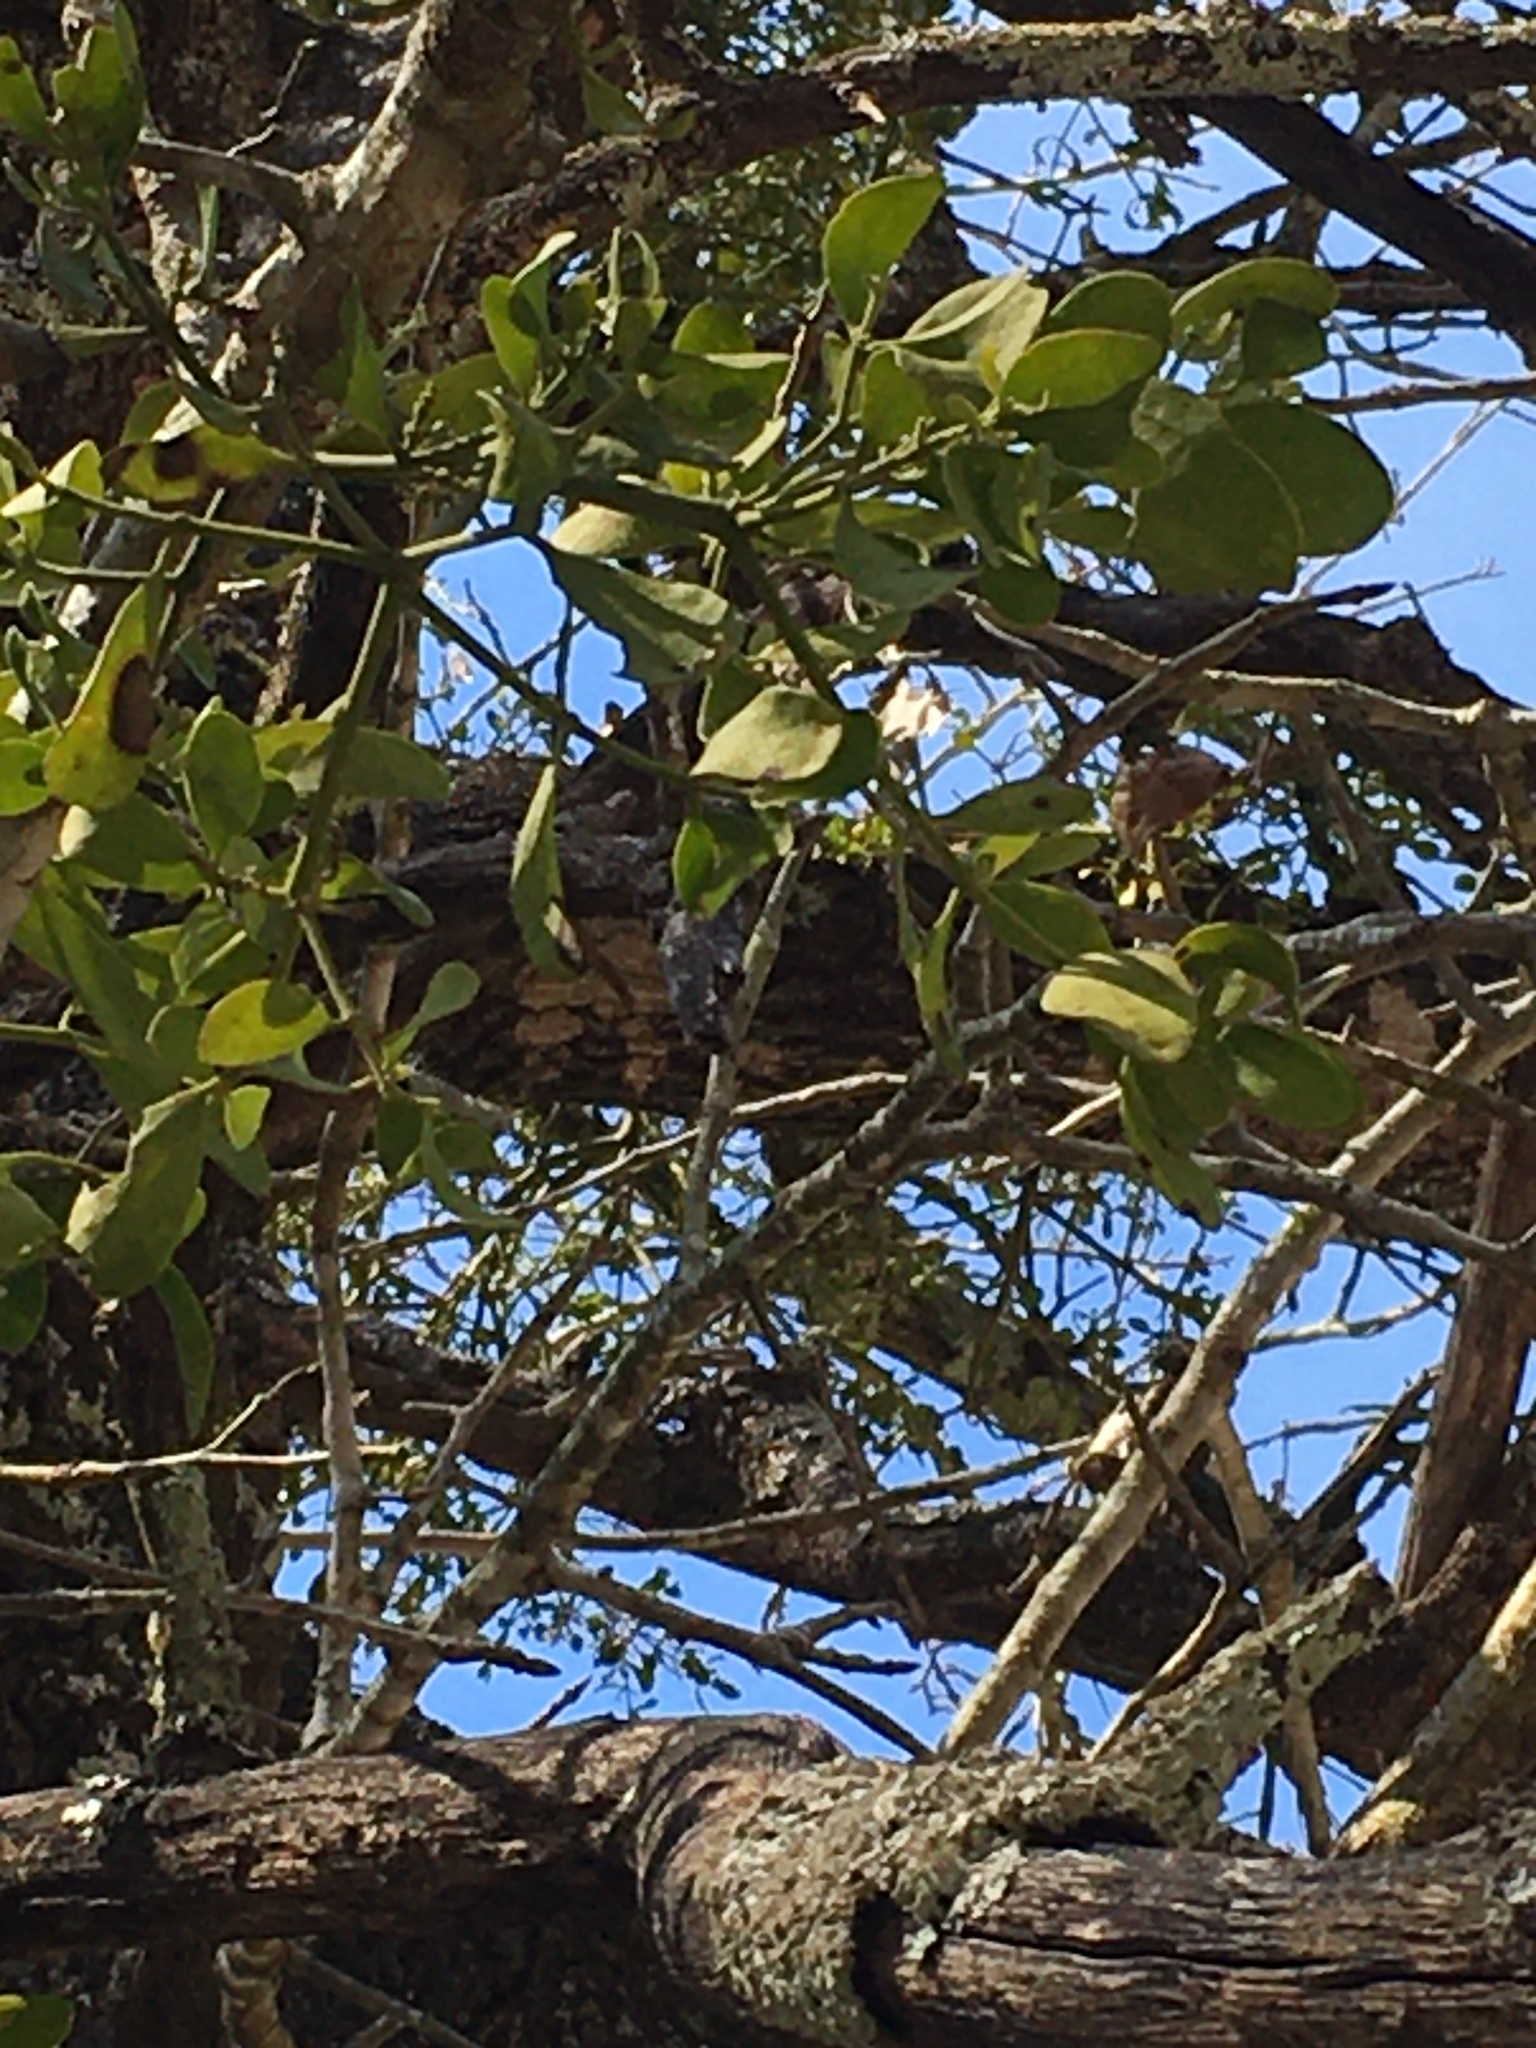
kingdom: Plantae
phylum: Tracheophyta
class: Magnoliopsida
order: Santalales
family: Viscaceae
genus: Phoradendron
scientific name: Phoradendron leucarpum
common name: Pacific mistletoe
